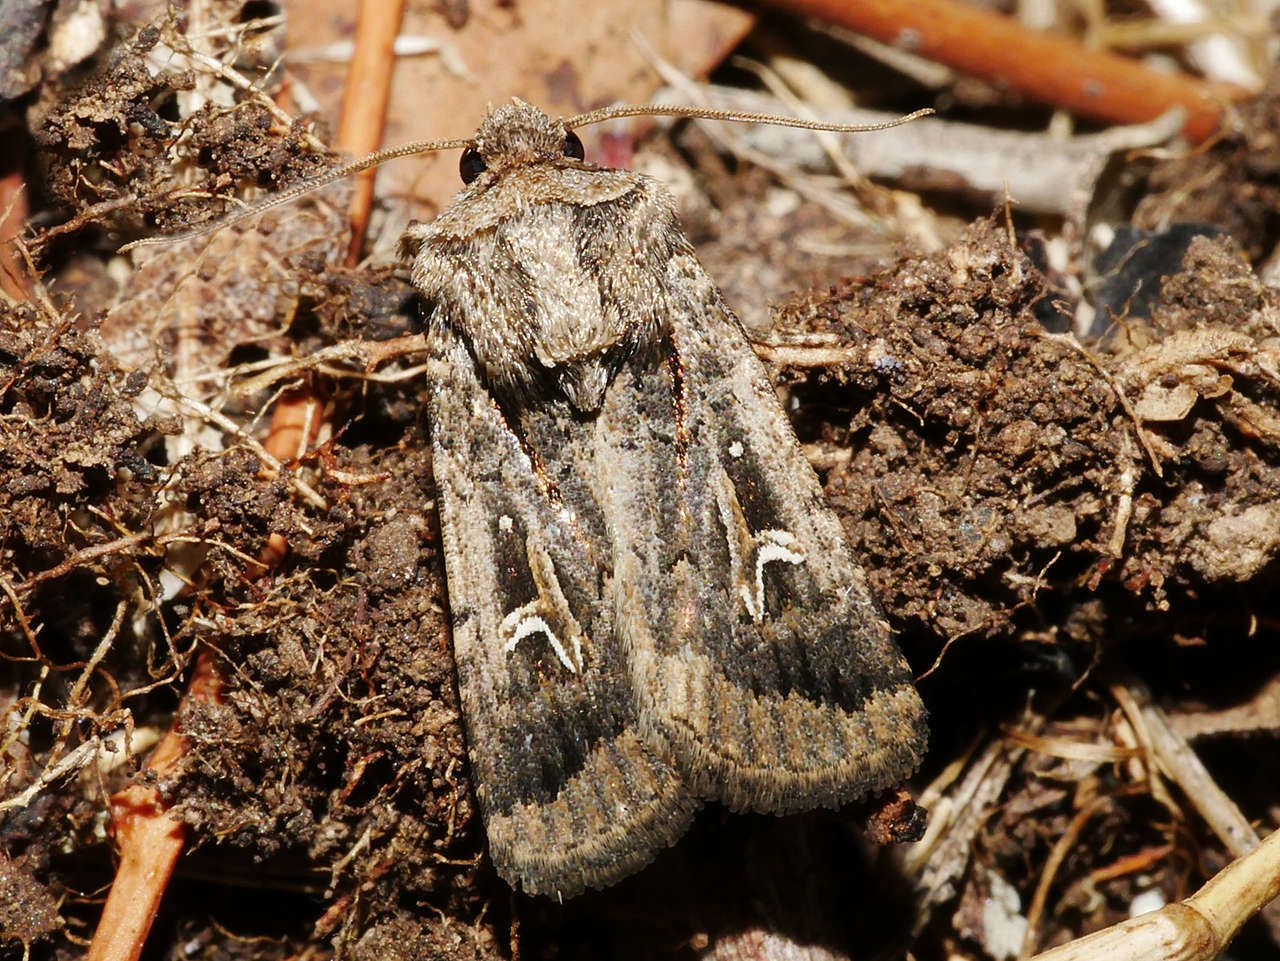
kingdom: Animalia
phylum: Arthropoda
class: Insecta
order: Lepidoptera
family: Noctuidae
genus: Proteuxoa
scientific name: Proteuxoa nuna
